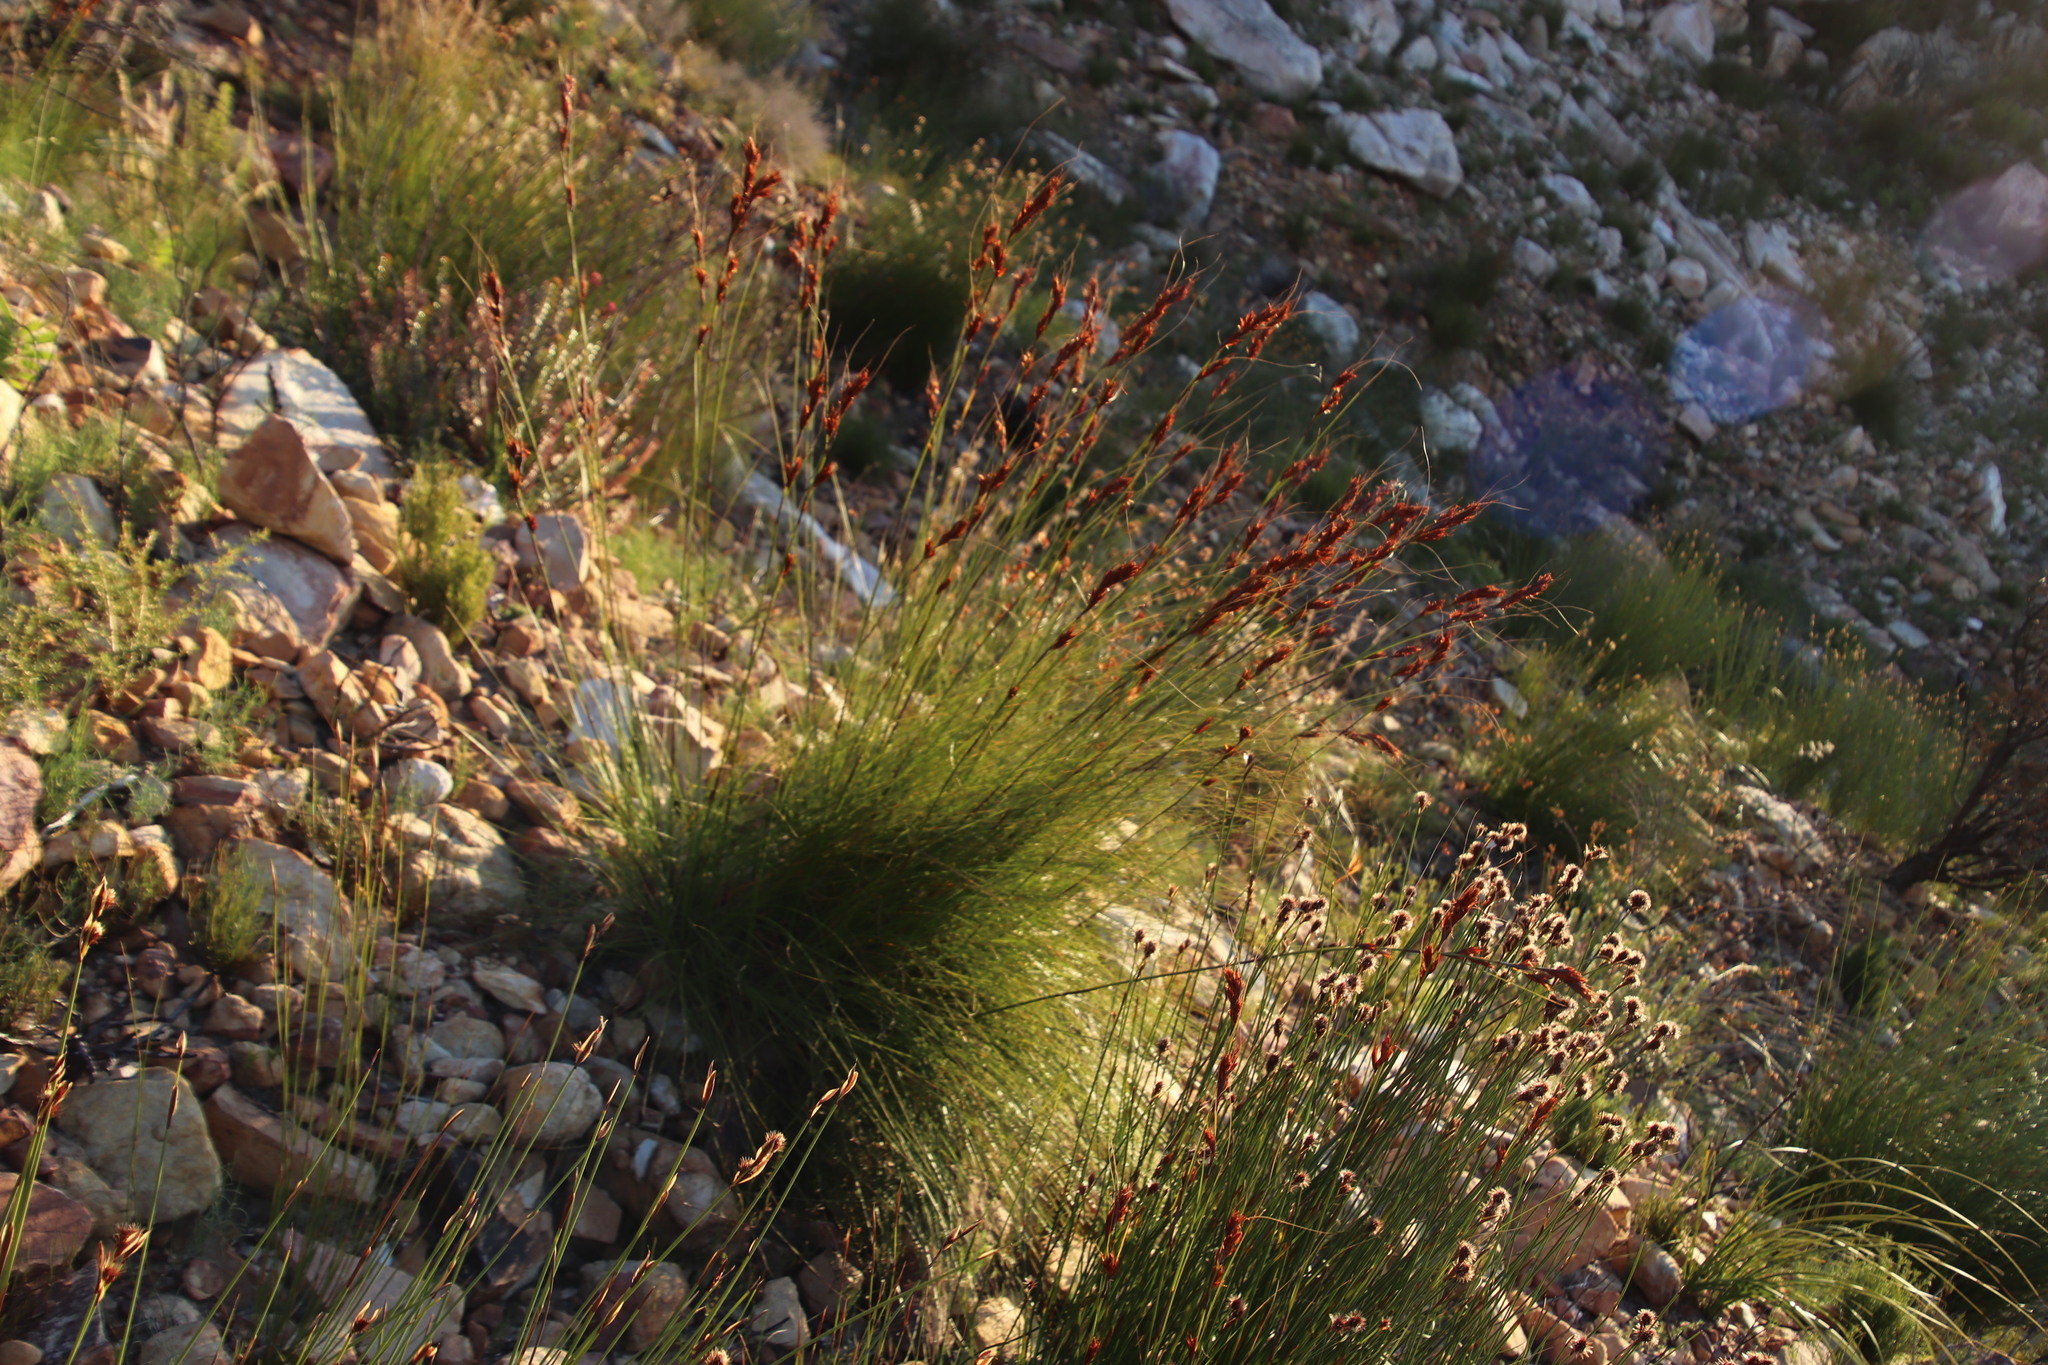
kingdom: Plantae
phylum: Tracheophyta
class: Liliopsida
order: Poales
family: Cyperaceae
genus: Tetraria
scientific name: Tetraria ustulata
